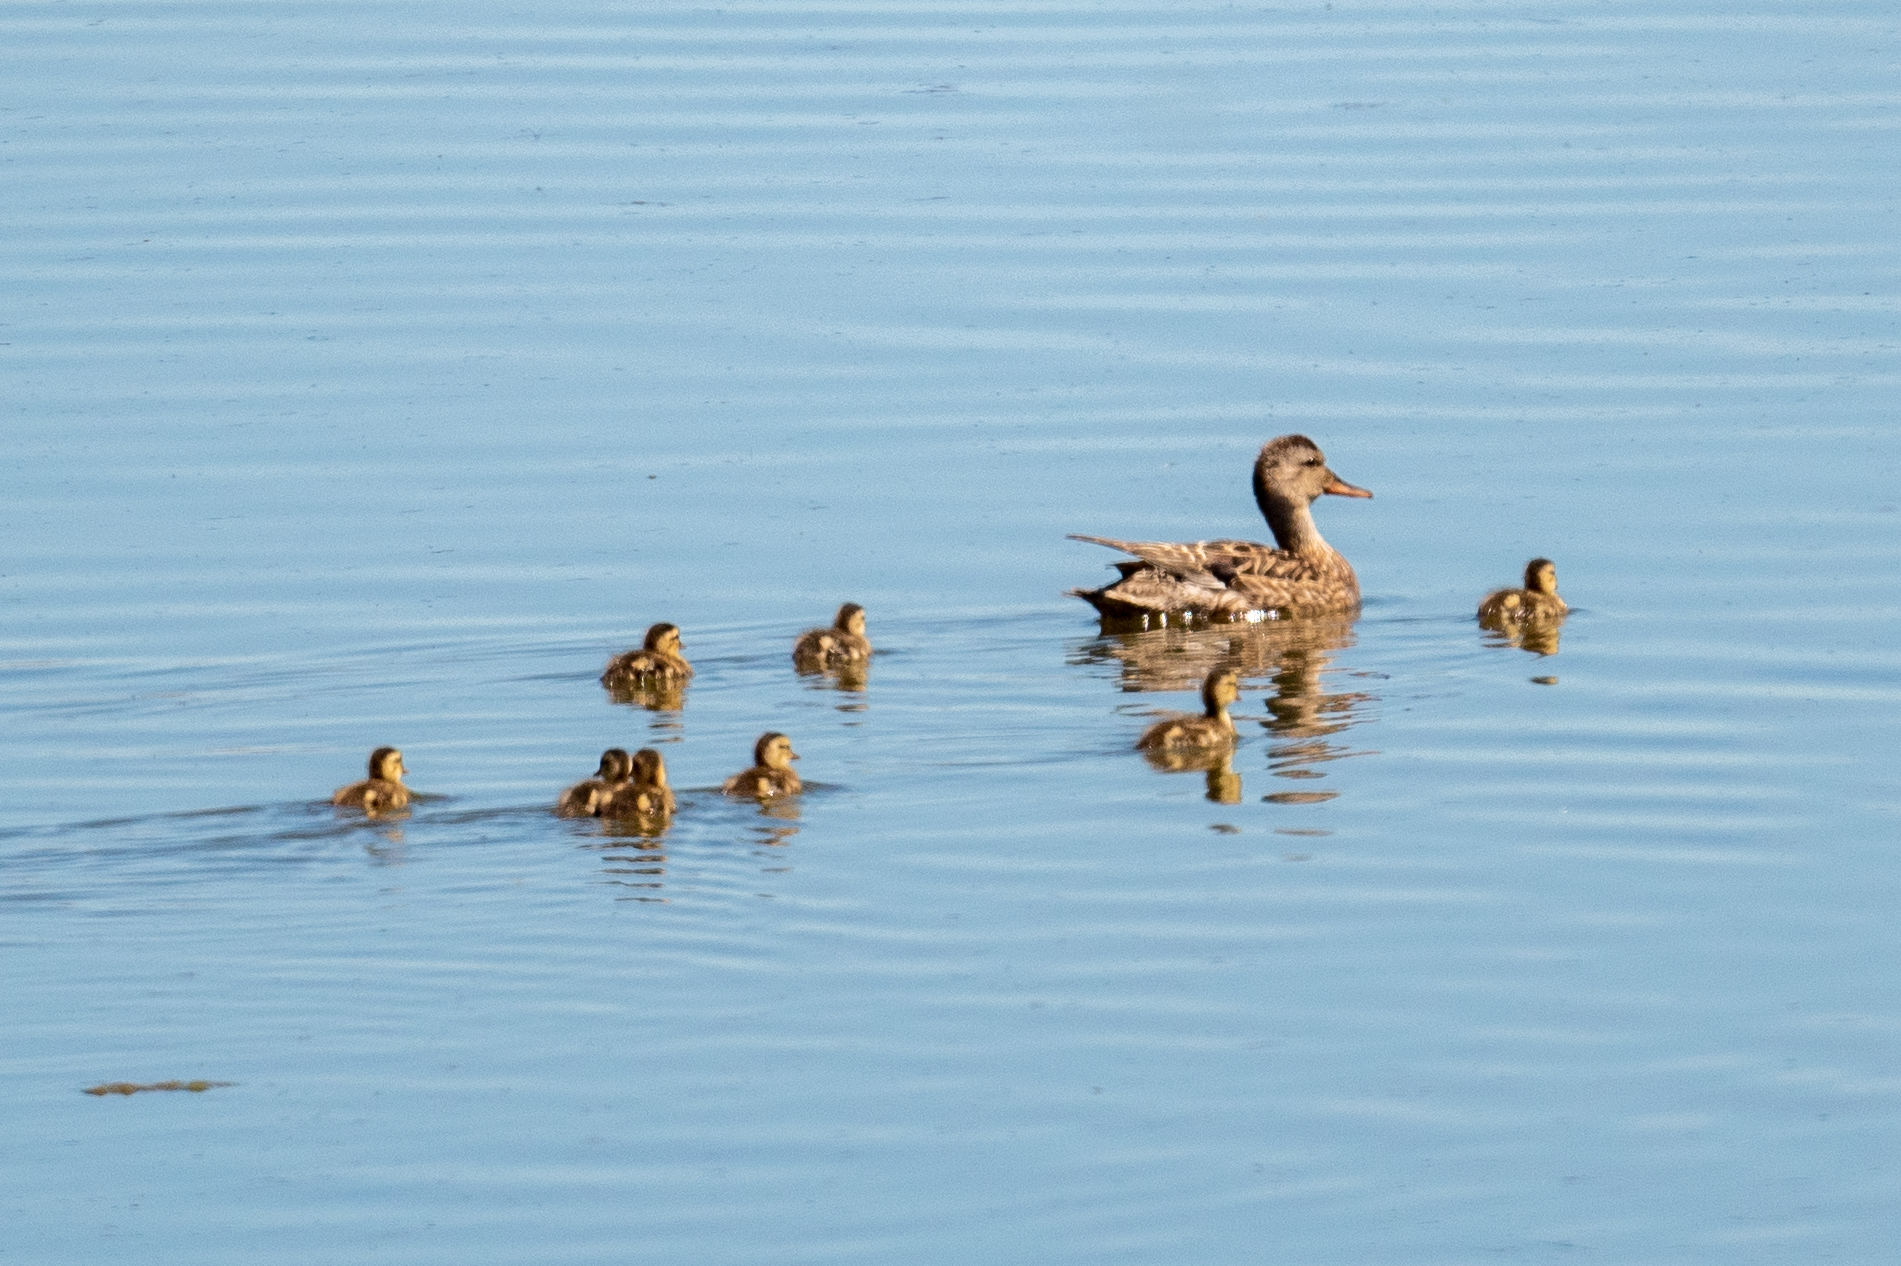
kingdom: Animalia
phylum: Chordata
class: Aves
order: Anseriformes
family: Anatidae
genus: Mareca
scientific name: Mareca strepera
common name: Gadwall
